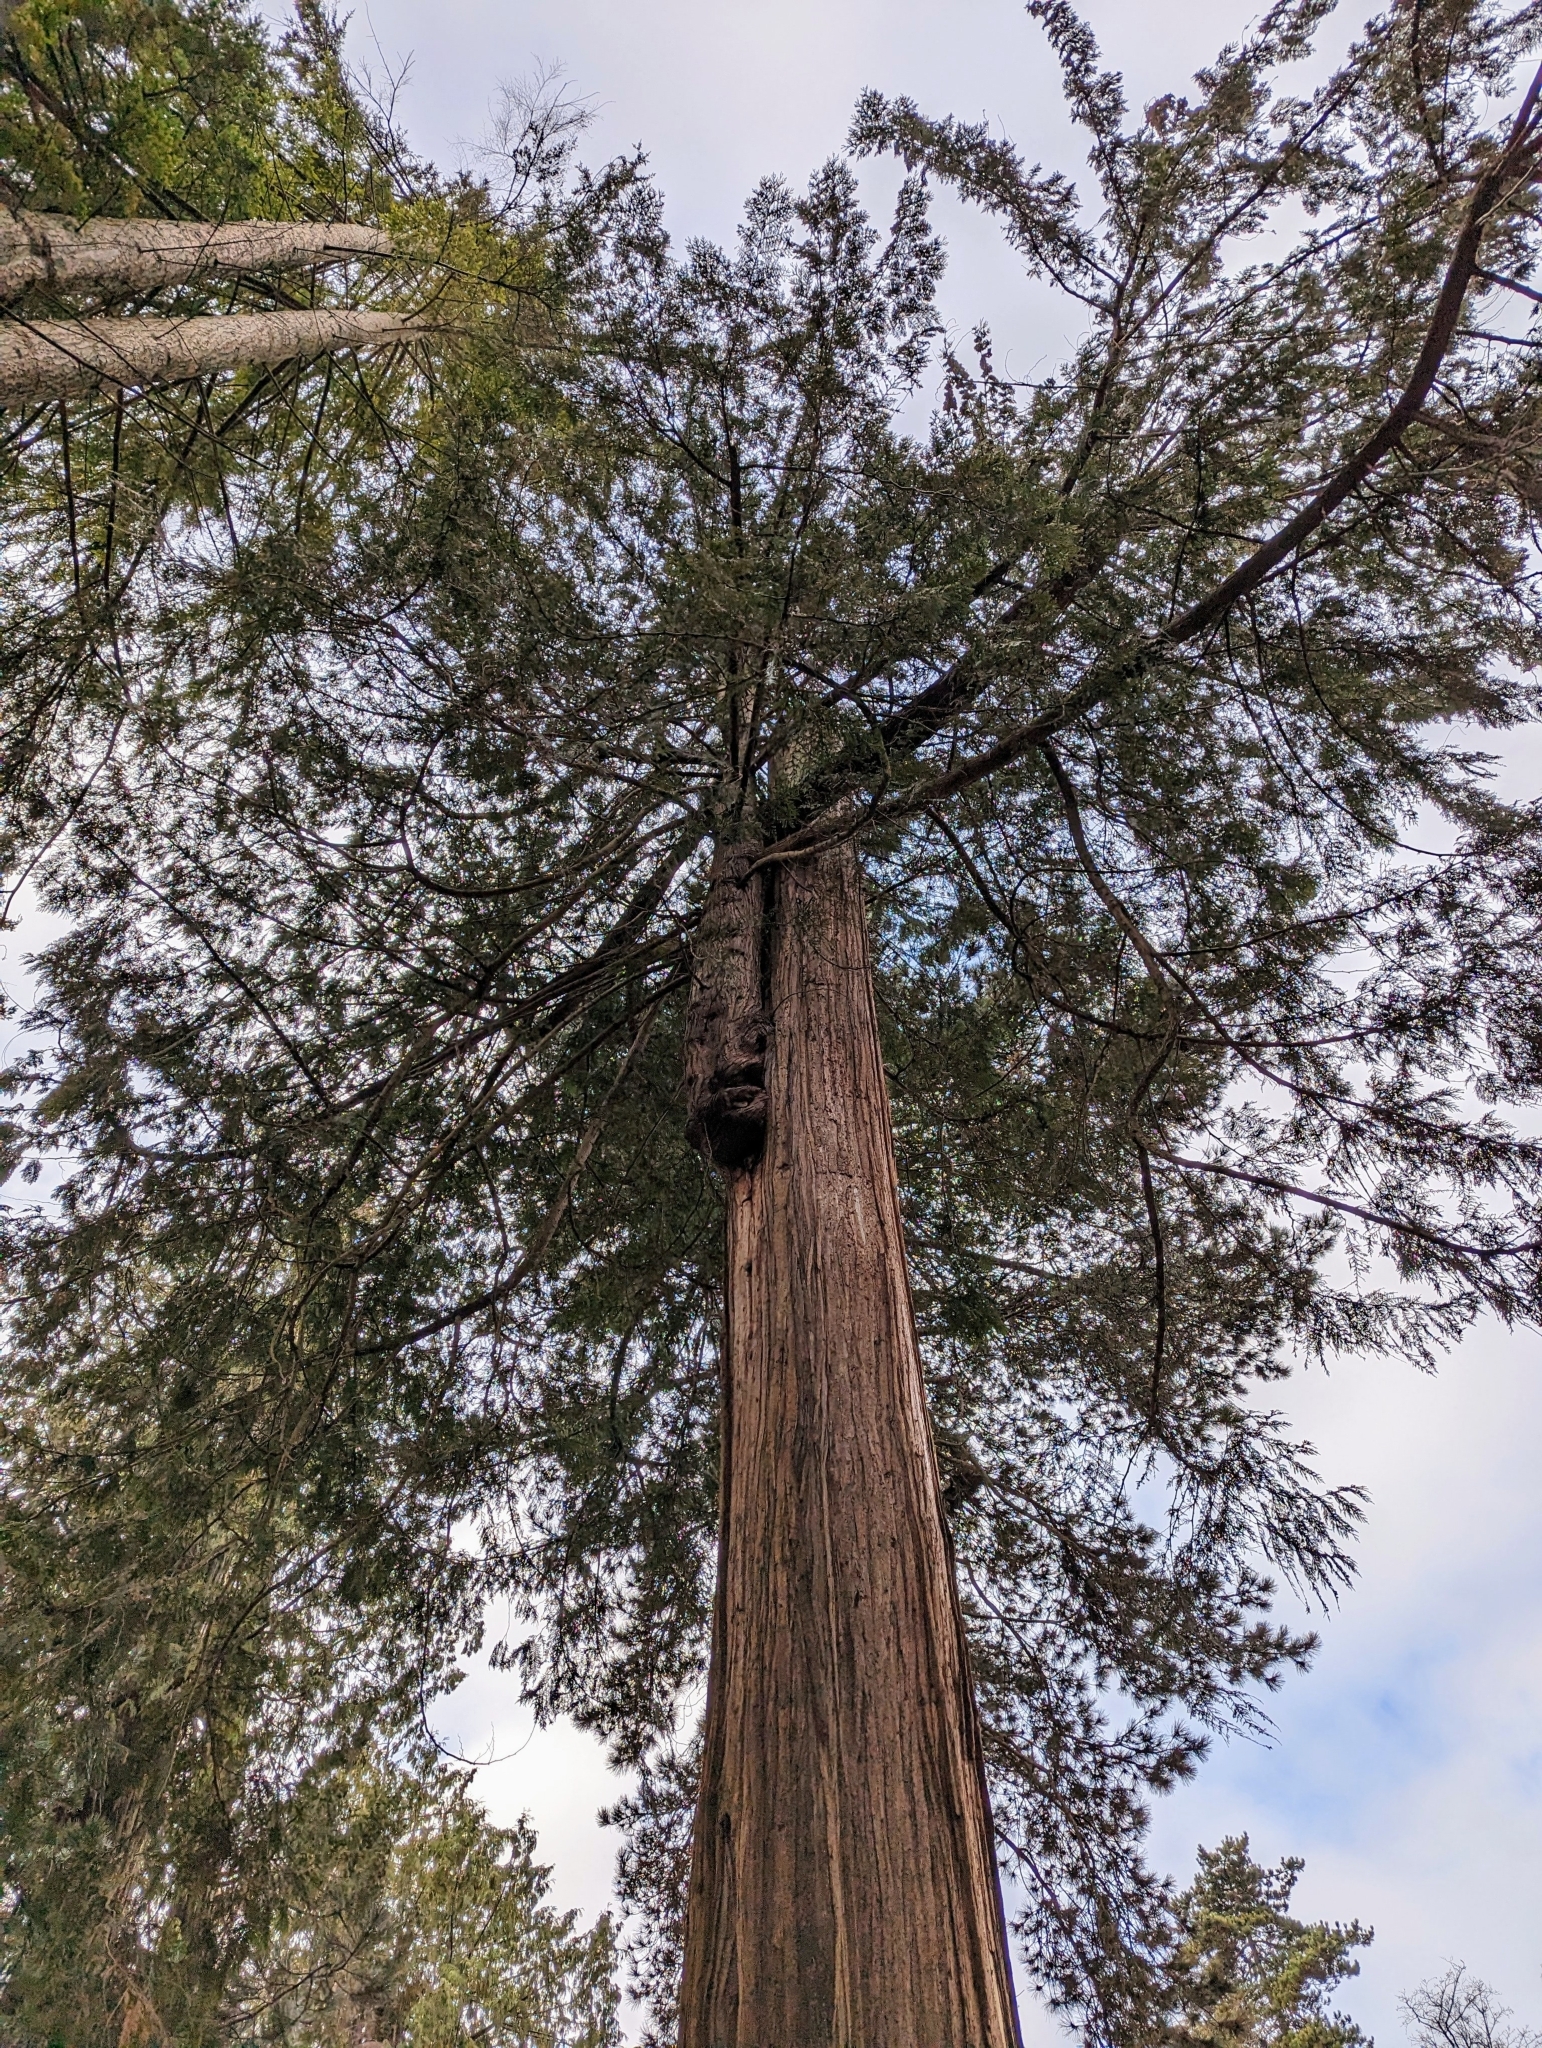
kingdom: Plantae
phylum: Tracheophyta
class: Pinopsida
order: Pinales
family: Cupressaceae
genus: Thuja
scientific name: Thuja plicata
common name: Western red-cedar
